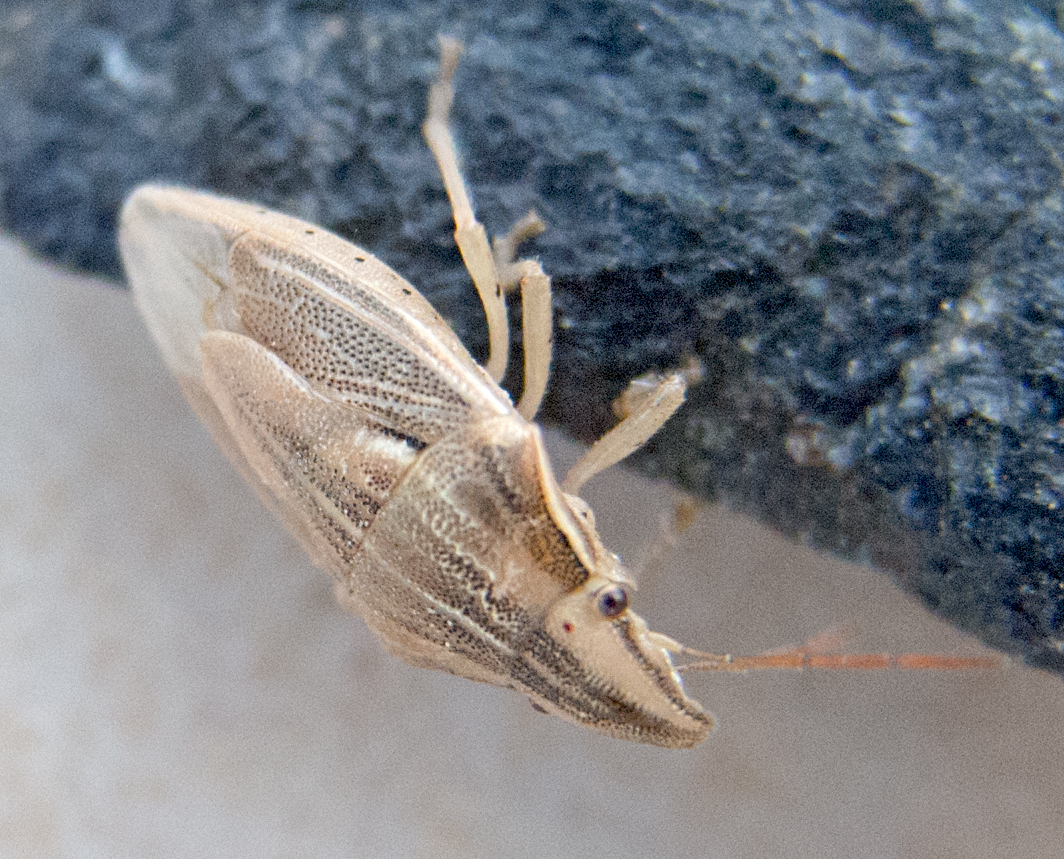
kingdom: Animalia
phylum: Arthropoda
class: Insecta
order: Hemiptera
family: Pentatomidae
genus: Aelia
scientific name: Aelia acuminata
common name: Bishop's mitre
